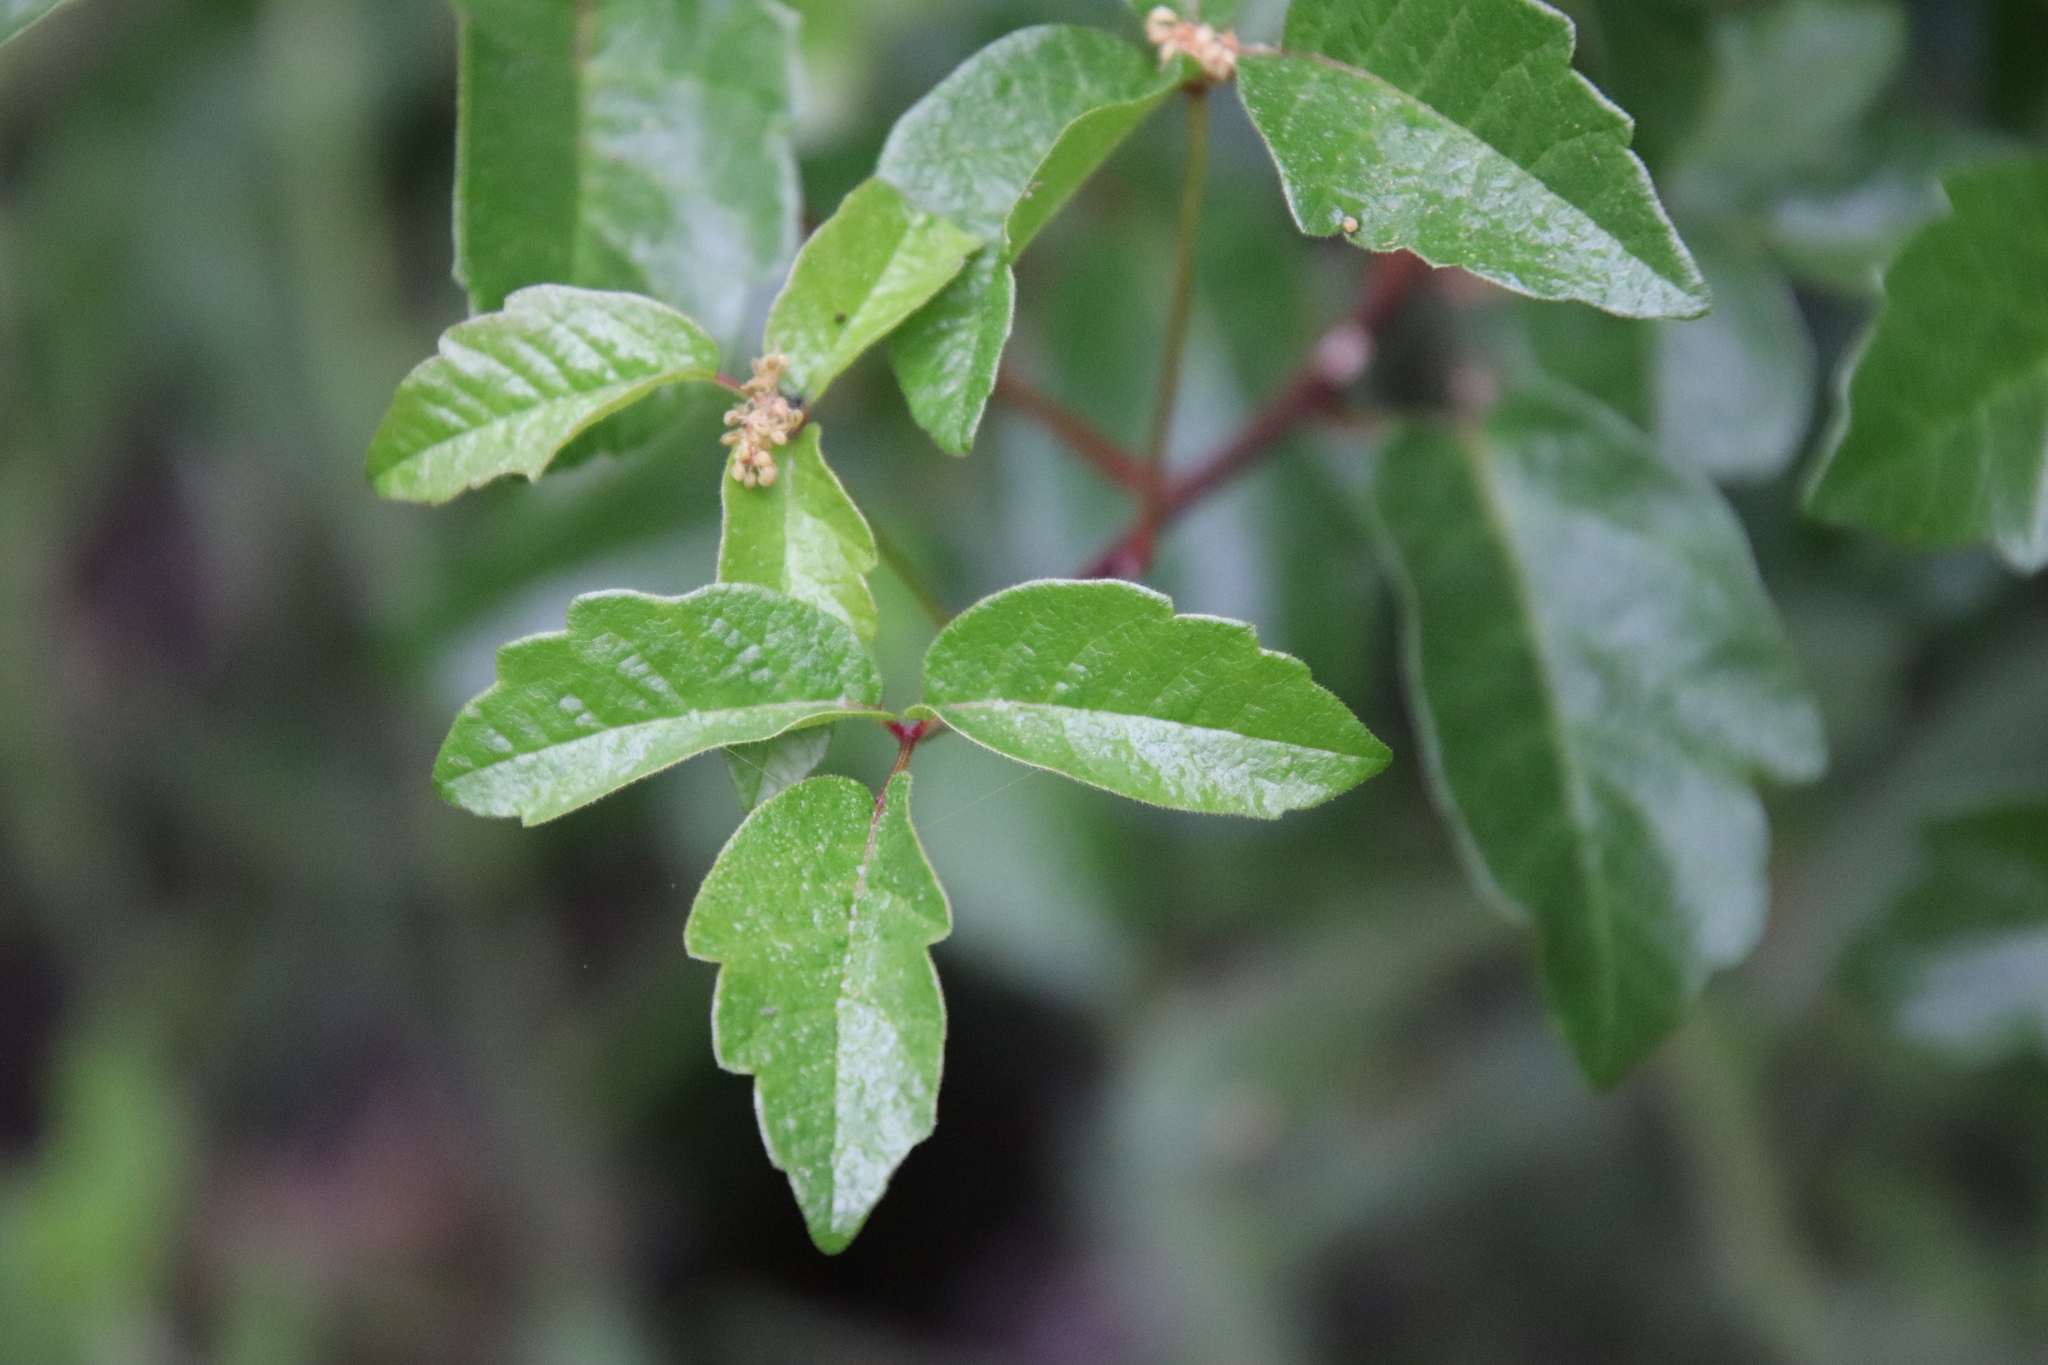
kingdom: Plantae
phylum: Tracheophyta
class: Magnoliopsida
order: Sapindales
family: Anacardiaceae
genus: Toxicodendron
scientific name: Toxicodendron diversilobum
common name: Pacific poison-oak
